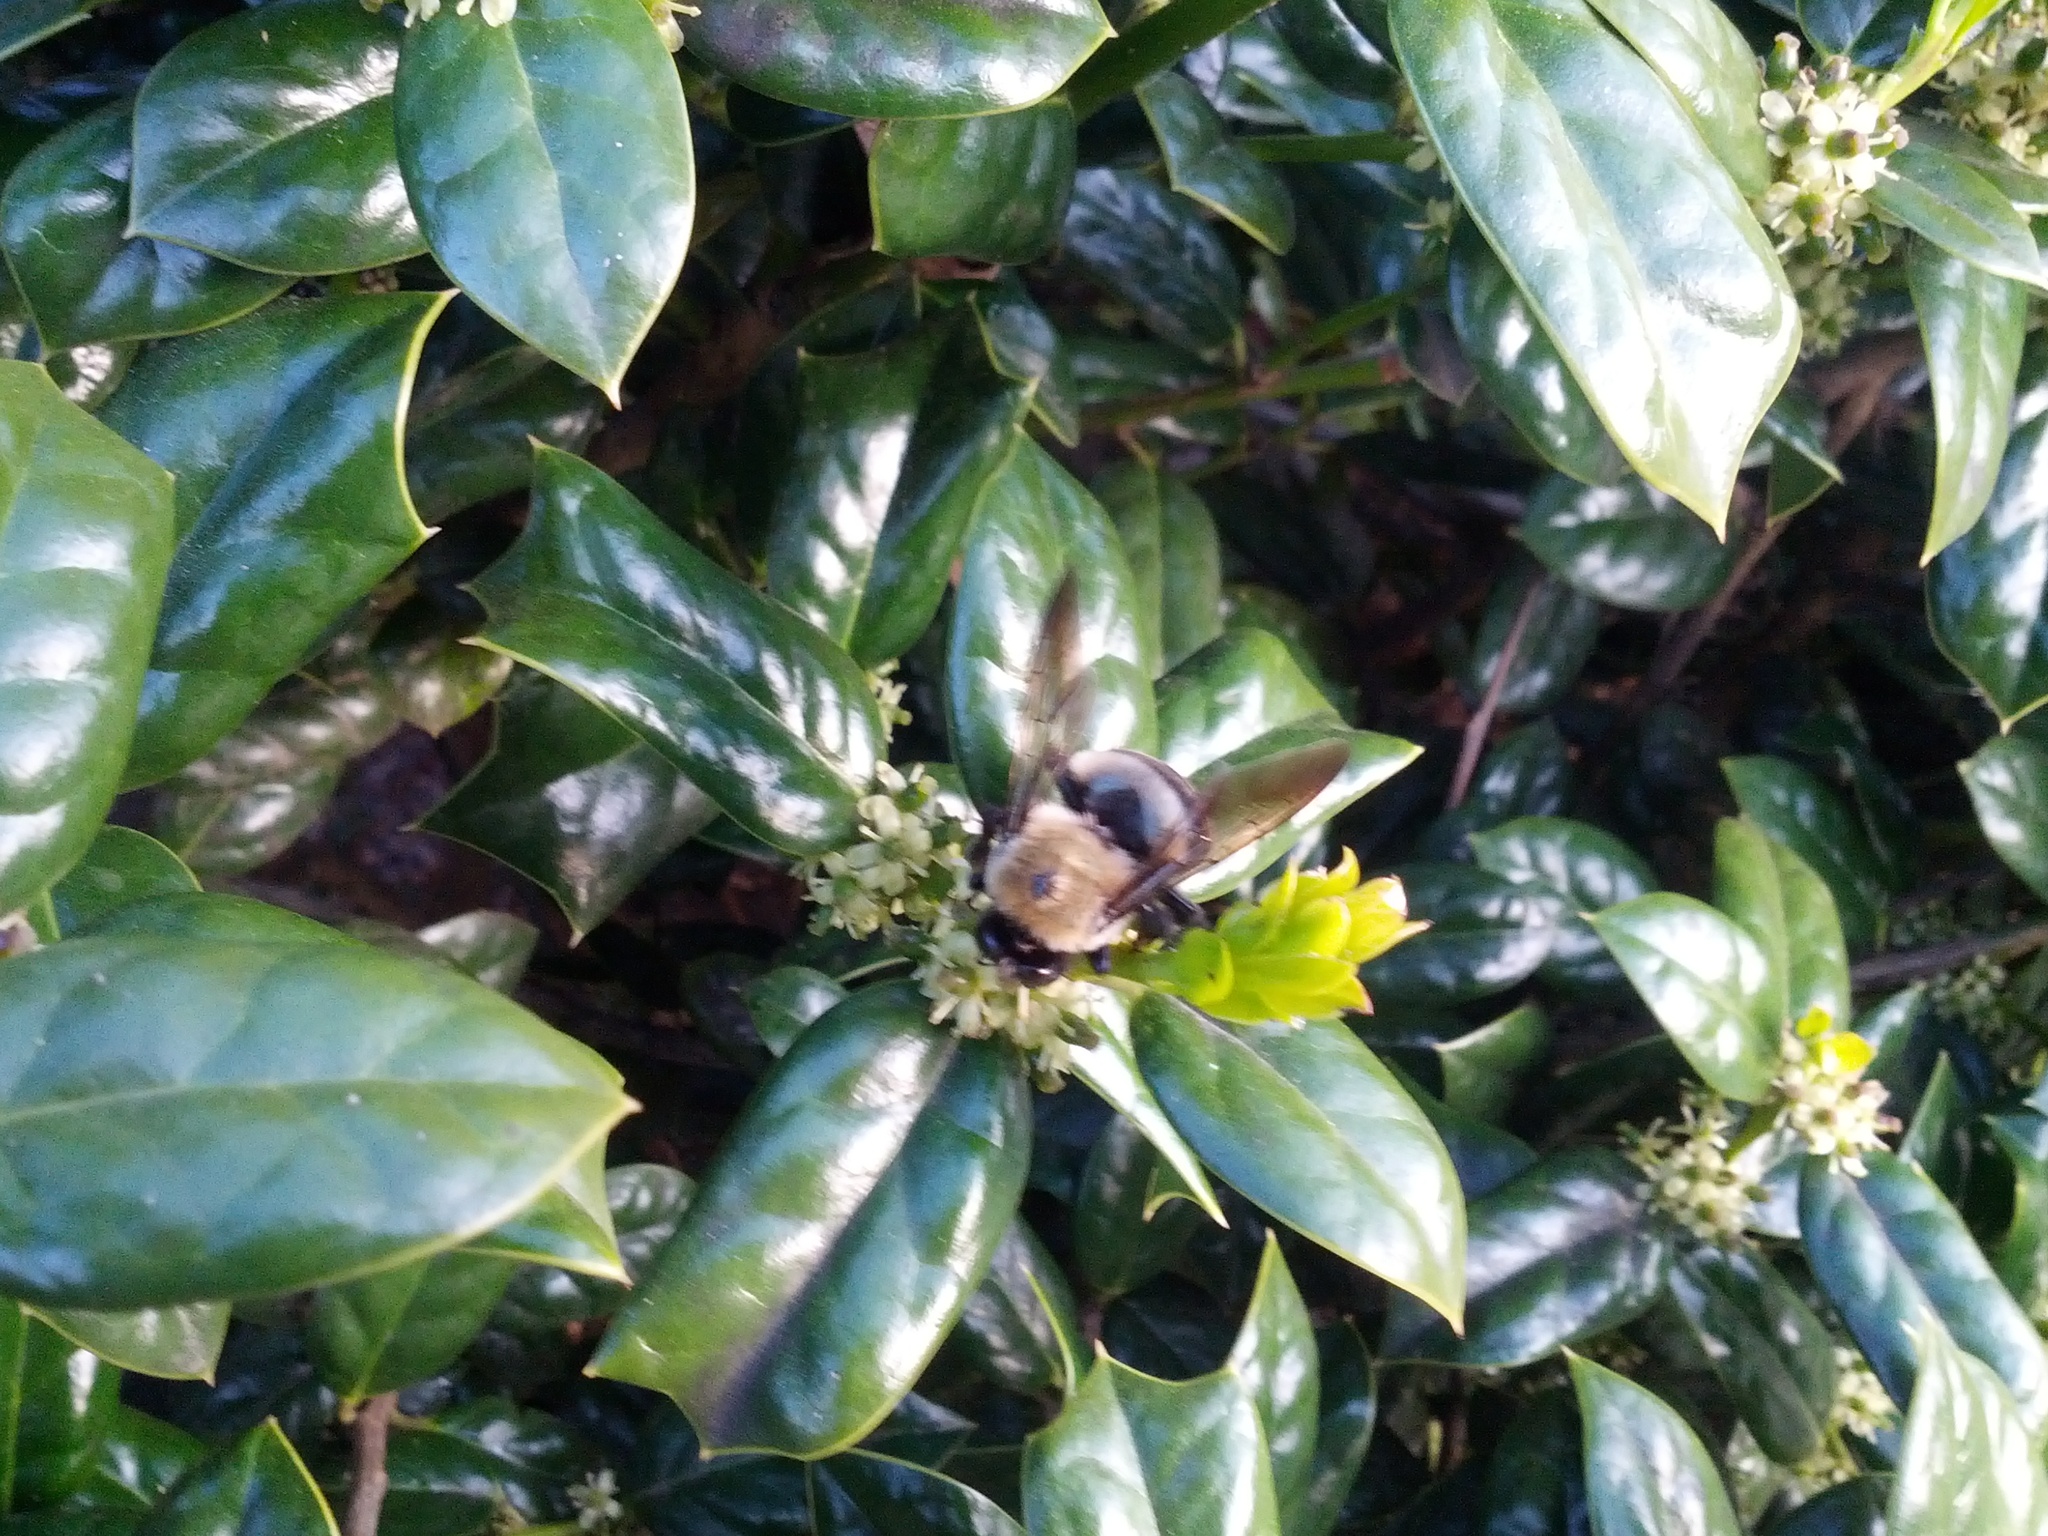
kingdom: Animalia
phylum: Arthropoda
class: Insecta
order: Hymenoptera
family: Apidae
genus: Xylocopa
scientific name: Xylocopa virginica
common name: Carpenter bee
